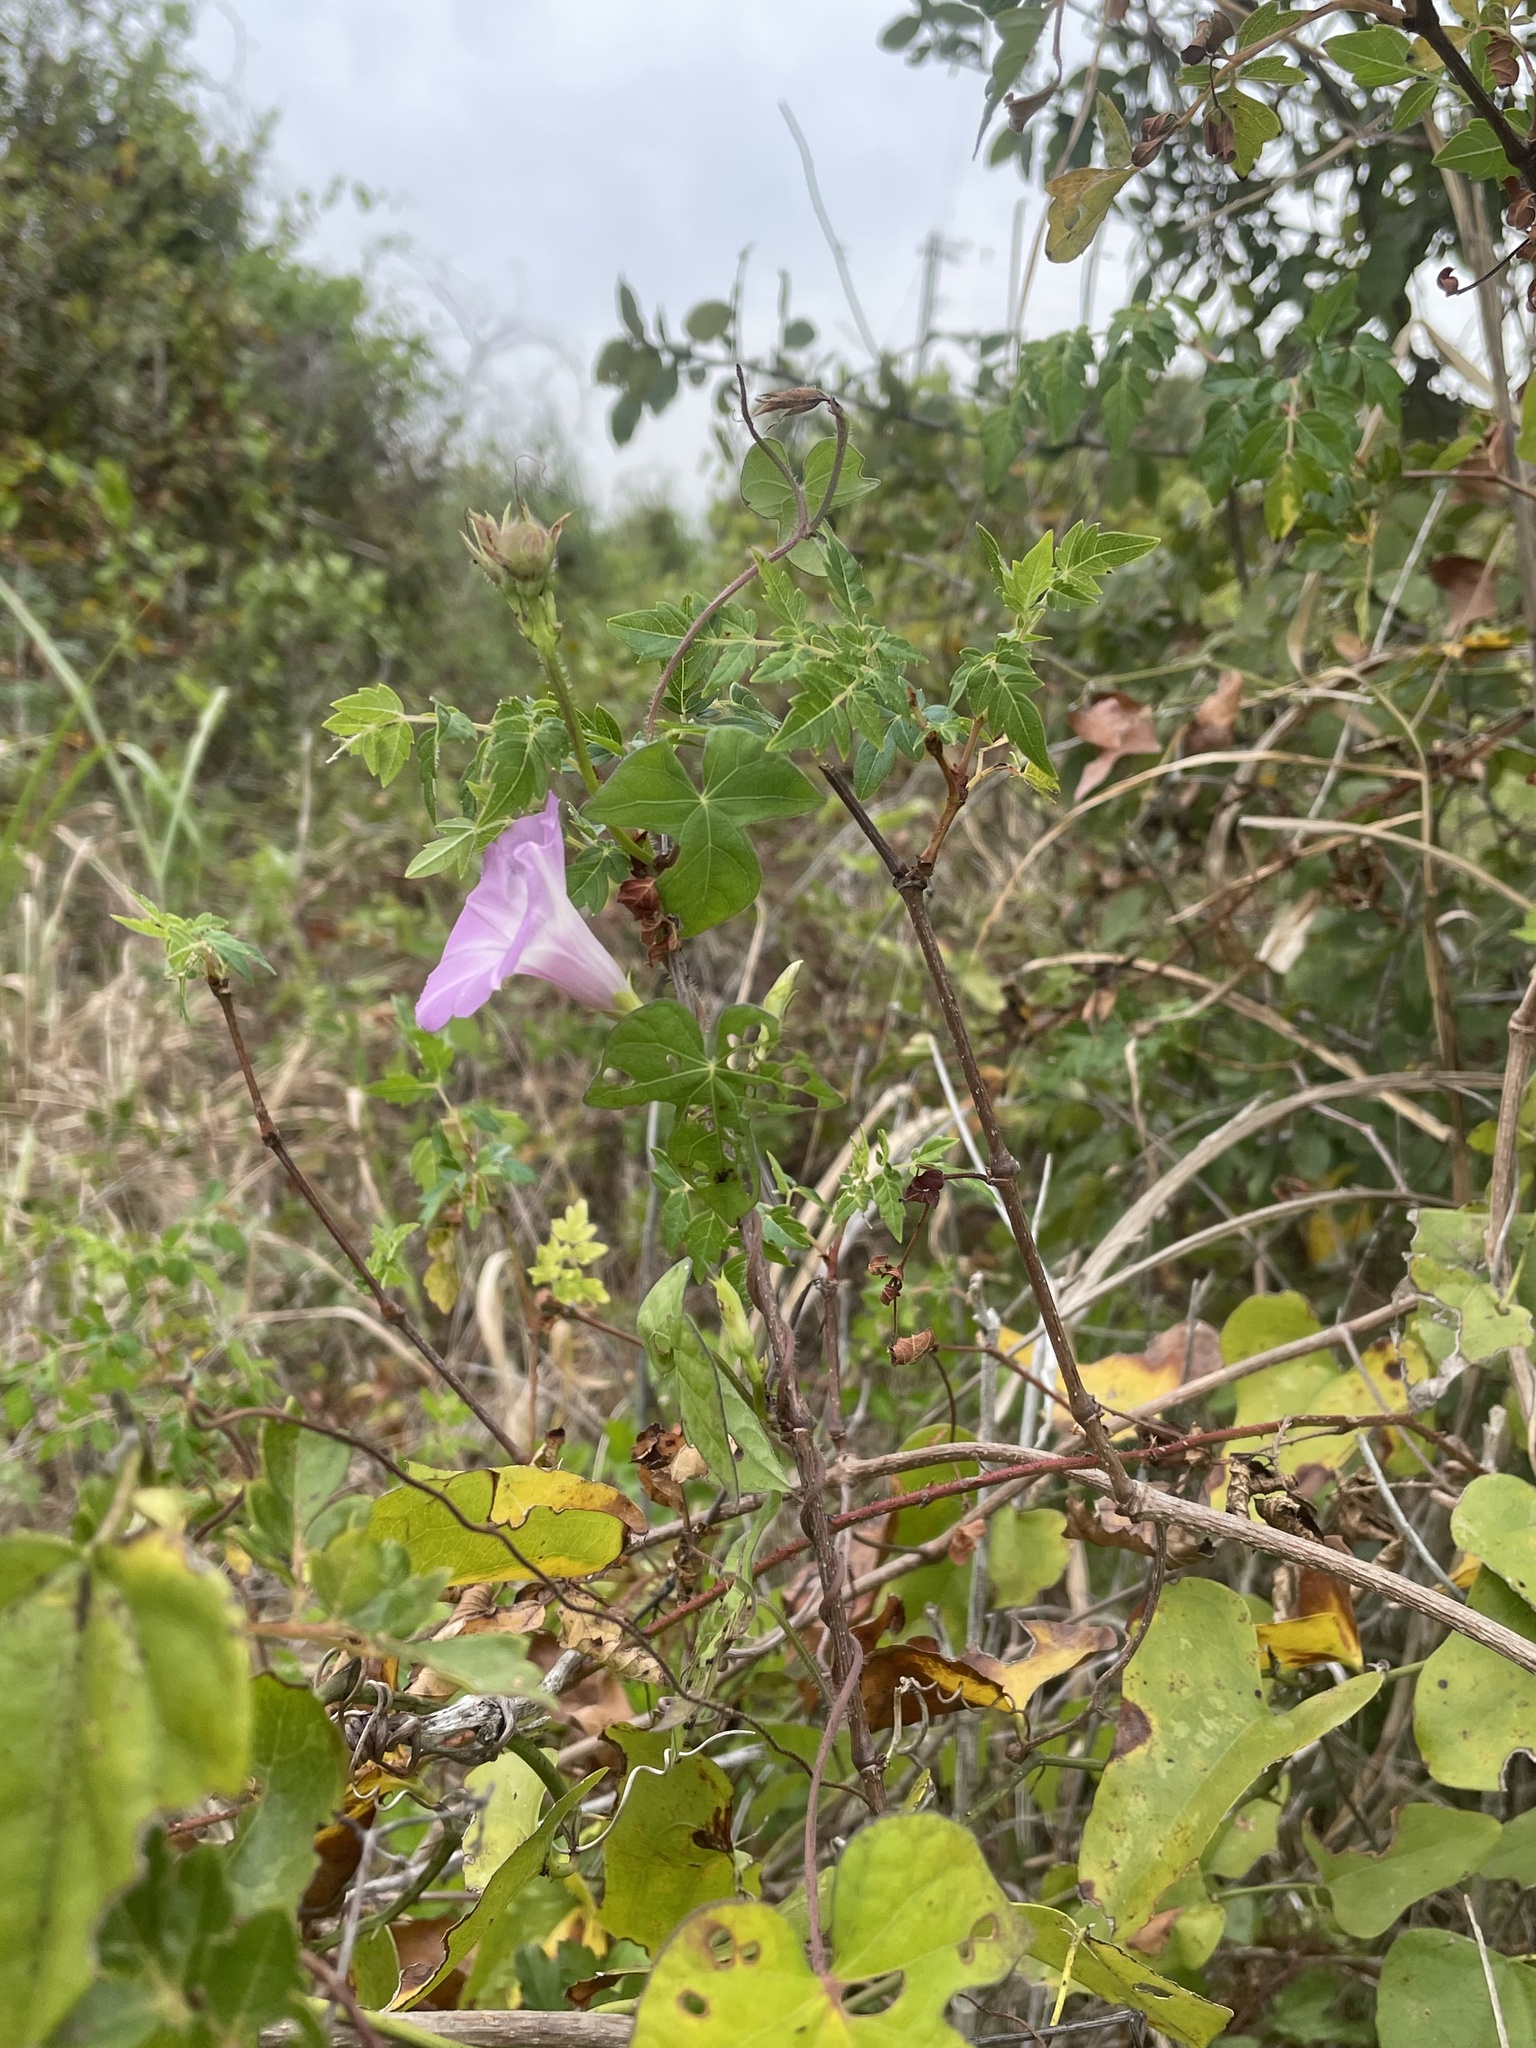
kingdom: Plantae
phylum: Tracheophyta
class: Magnoliopsida
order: Solanales
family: Convolvulaceae
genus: Ipomoea
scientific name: Ipomoea cordatotriloba
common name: Cotton morning glory
